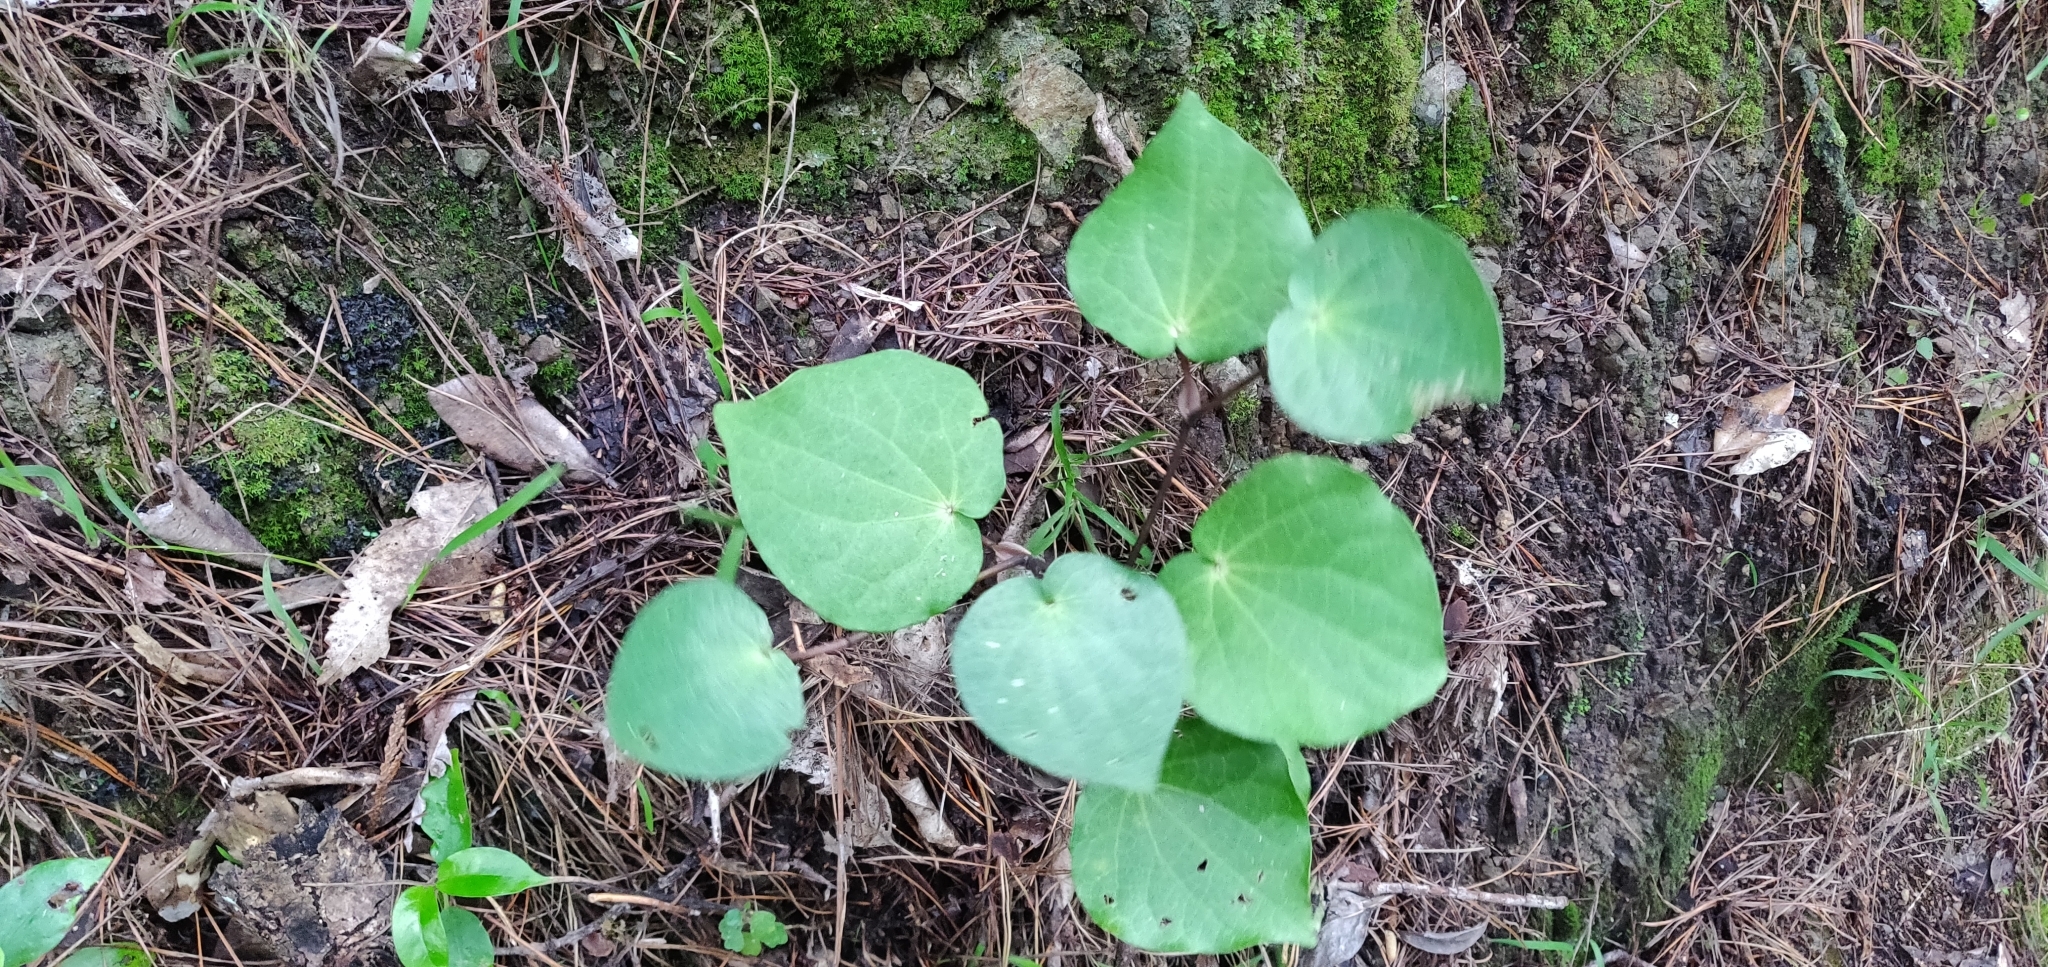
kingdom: Plantae
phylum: Tracheophyta
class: Magnoliopsida
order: Piperales
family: Piperaceae
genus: Macropiper
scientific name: Macropiper excelsum
